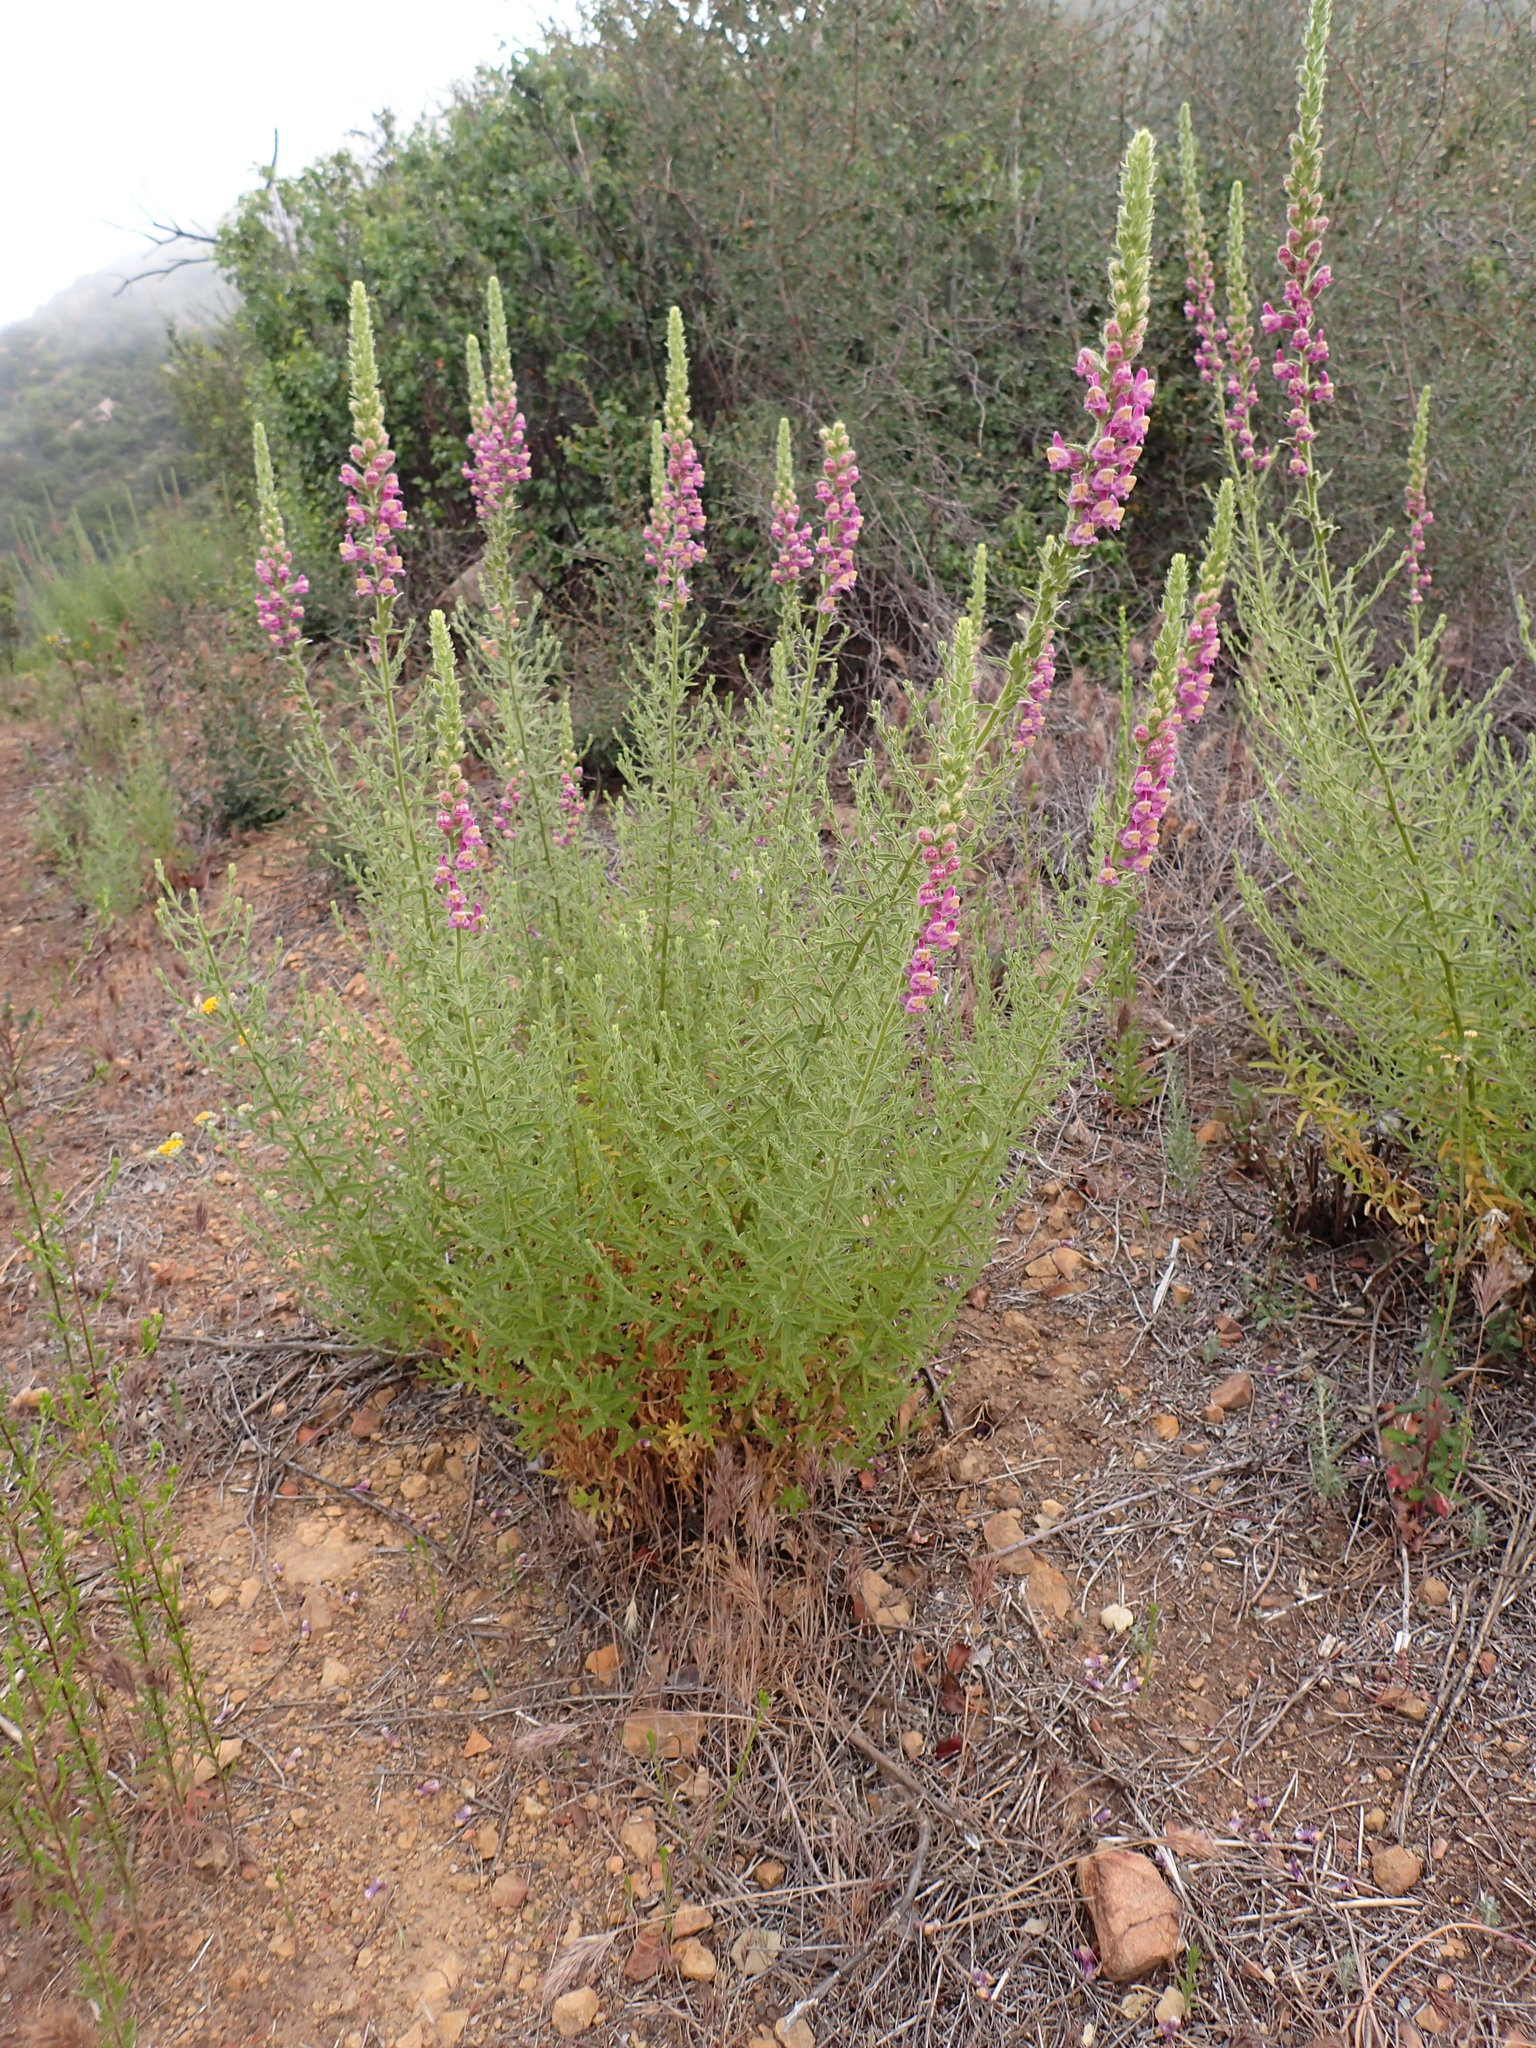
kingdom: Plantae
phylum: Tracheophyta
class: Magnoliopsida
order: Lamiales
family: Plantaginaceae
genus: Sairocarpus
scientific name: Sairocarpus multiflorus
